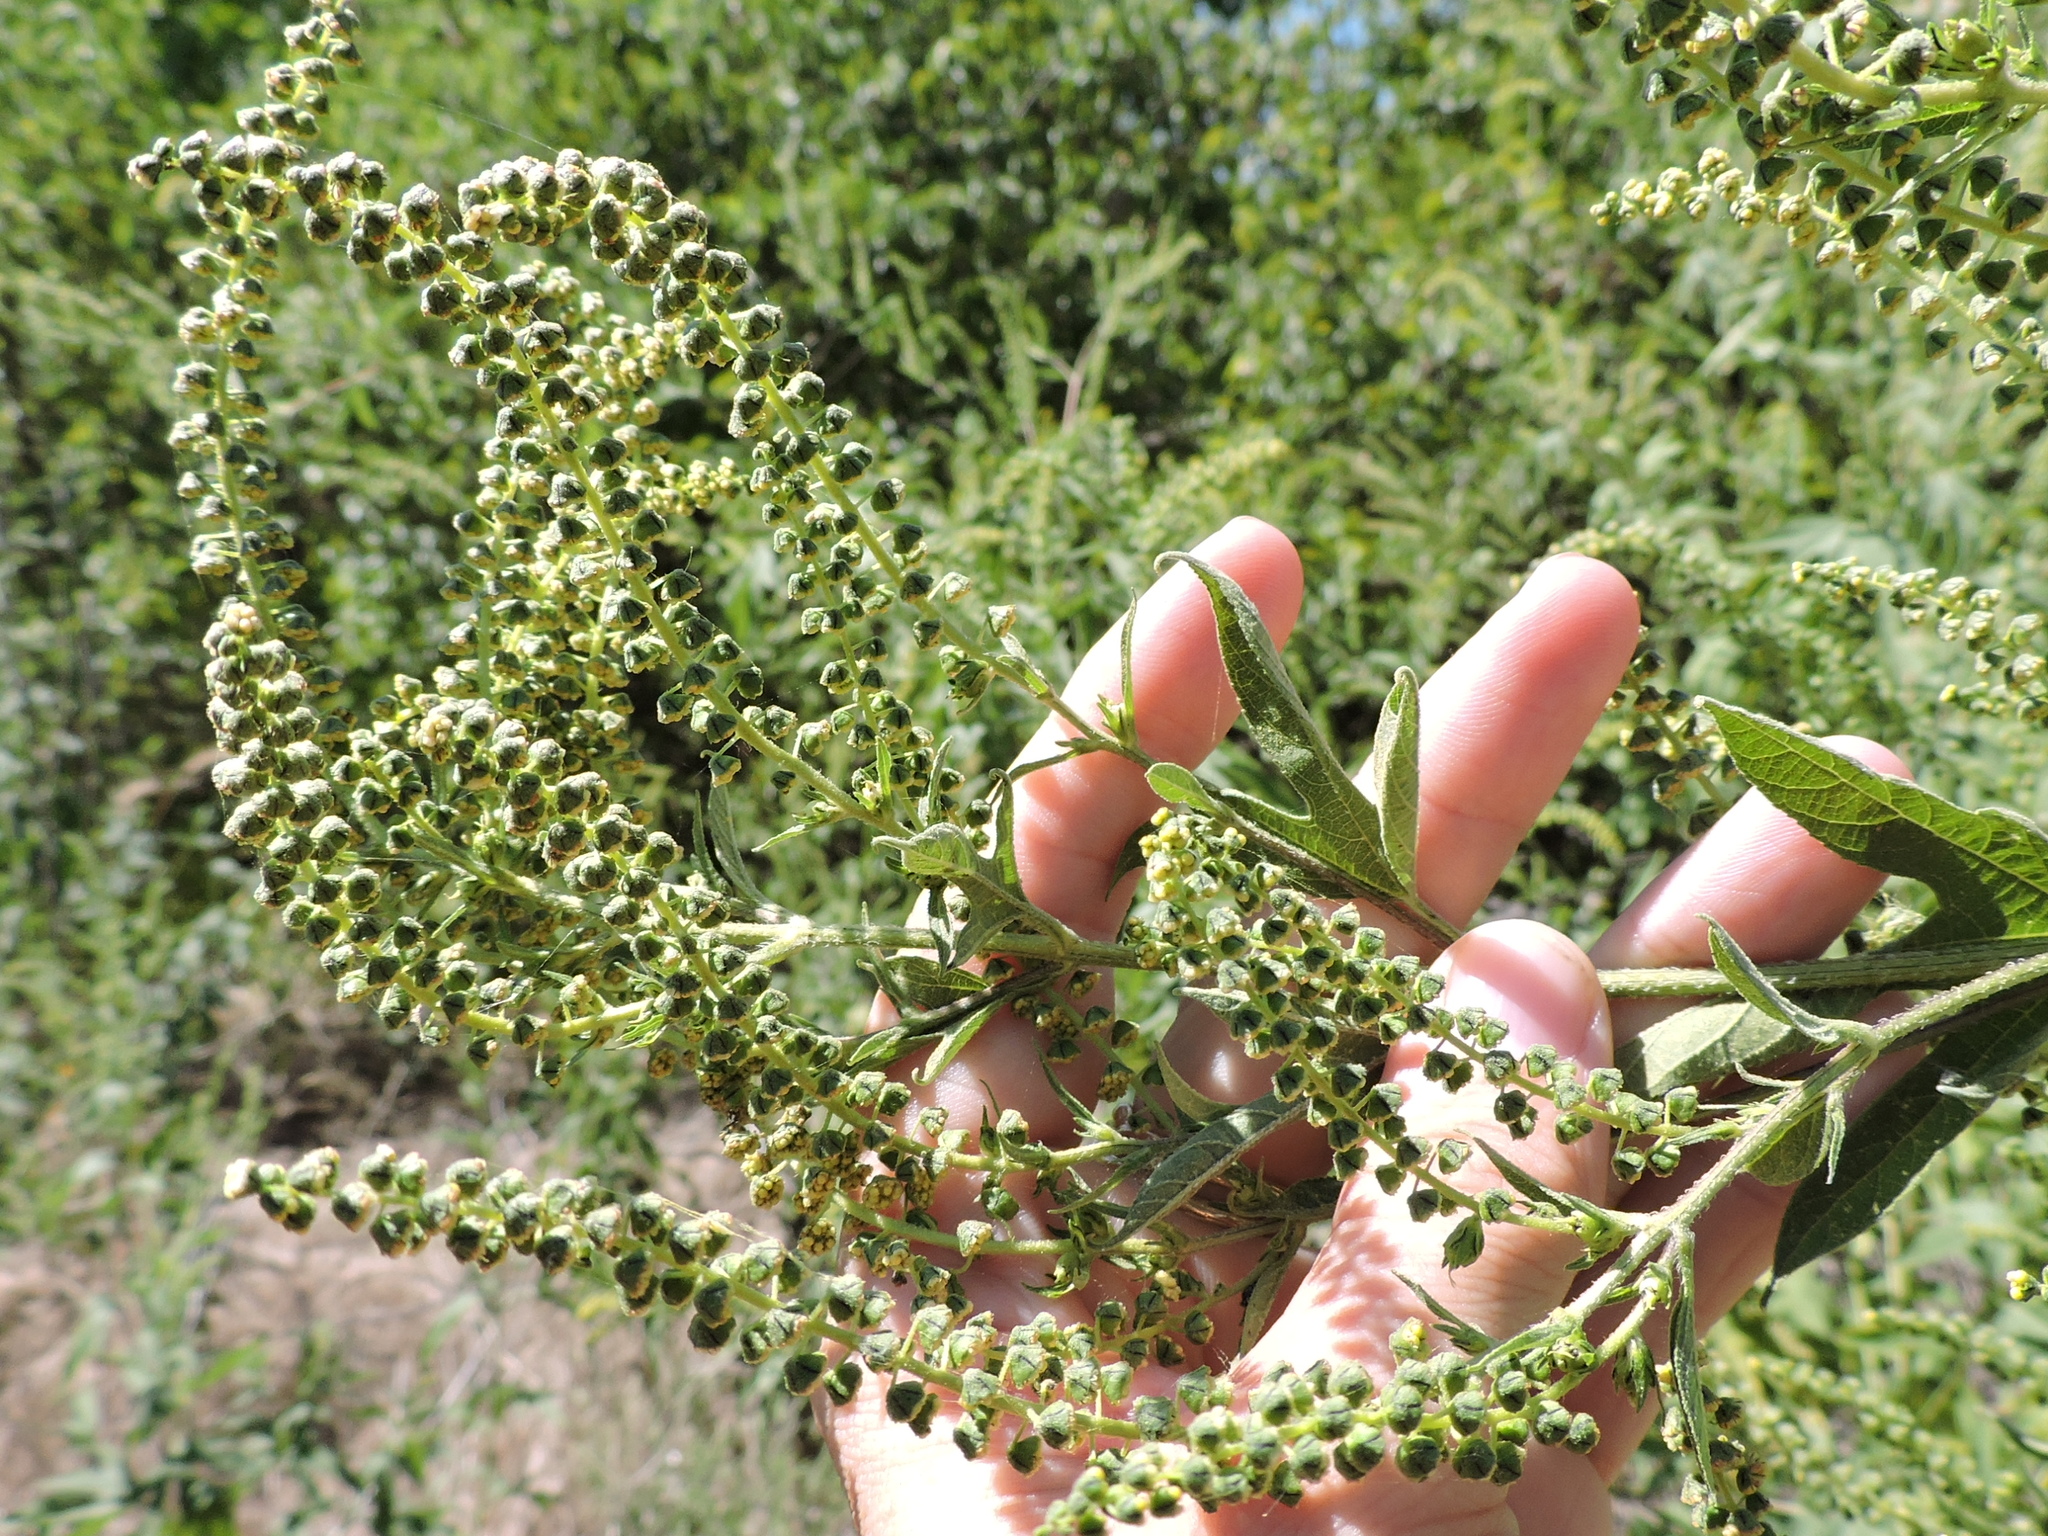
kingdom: Plantae
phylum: Tracheophyta
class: Magnoliopsida
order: Asterales
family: Asteraceae
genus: Ambrosia
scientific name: Ambrosia trifida
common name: Giant ragweed
